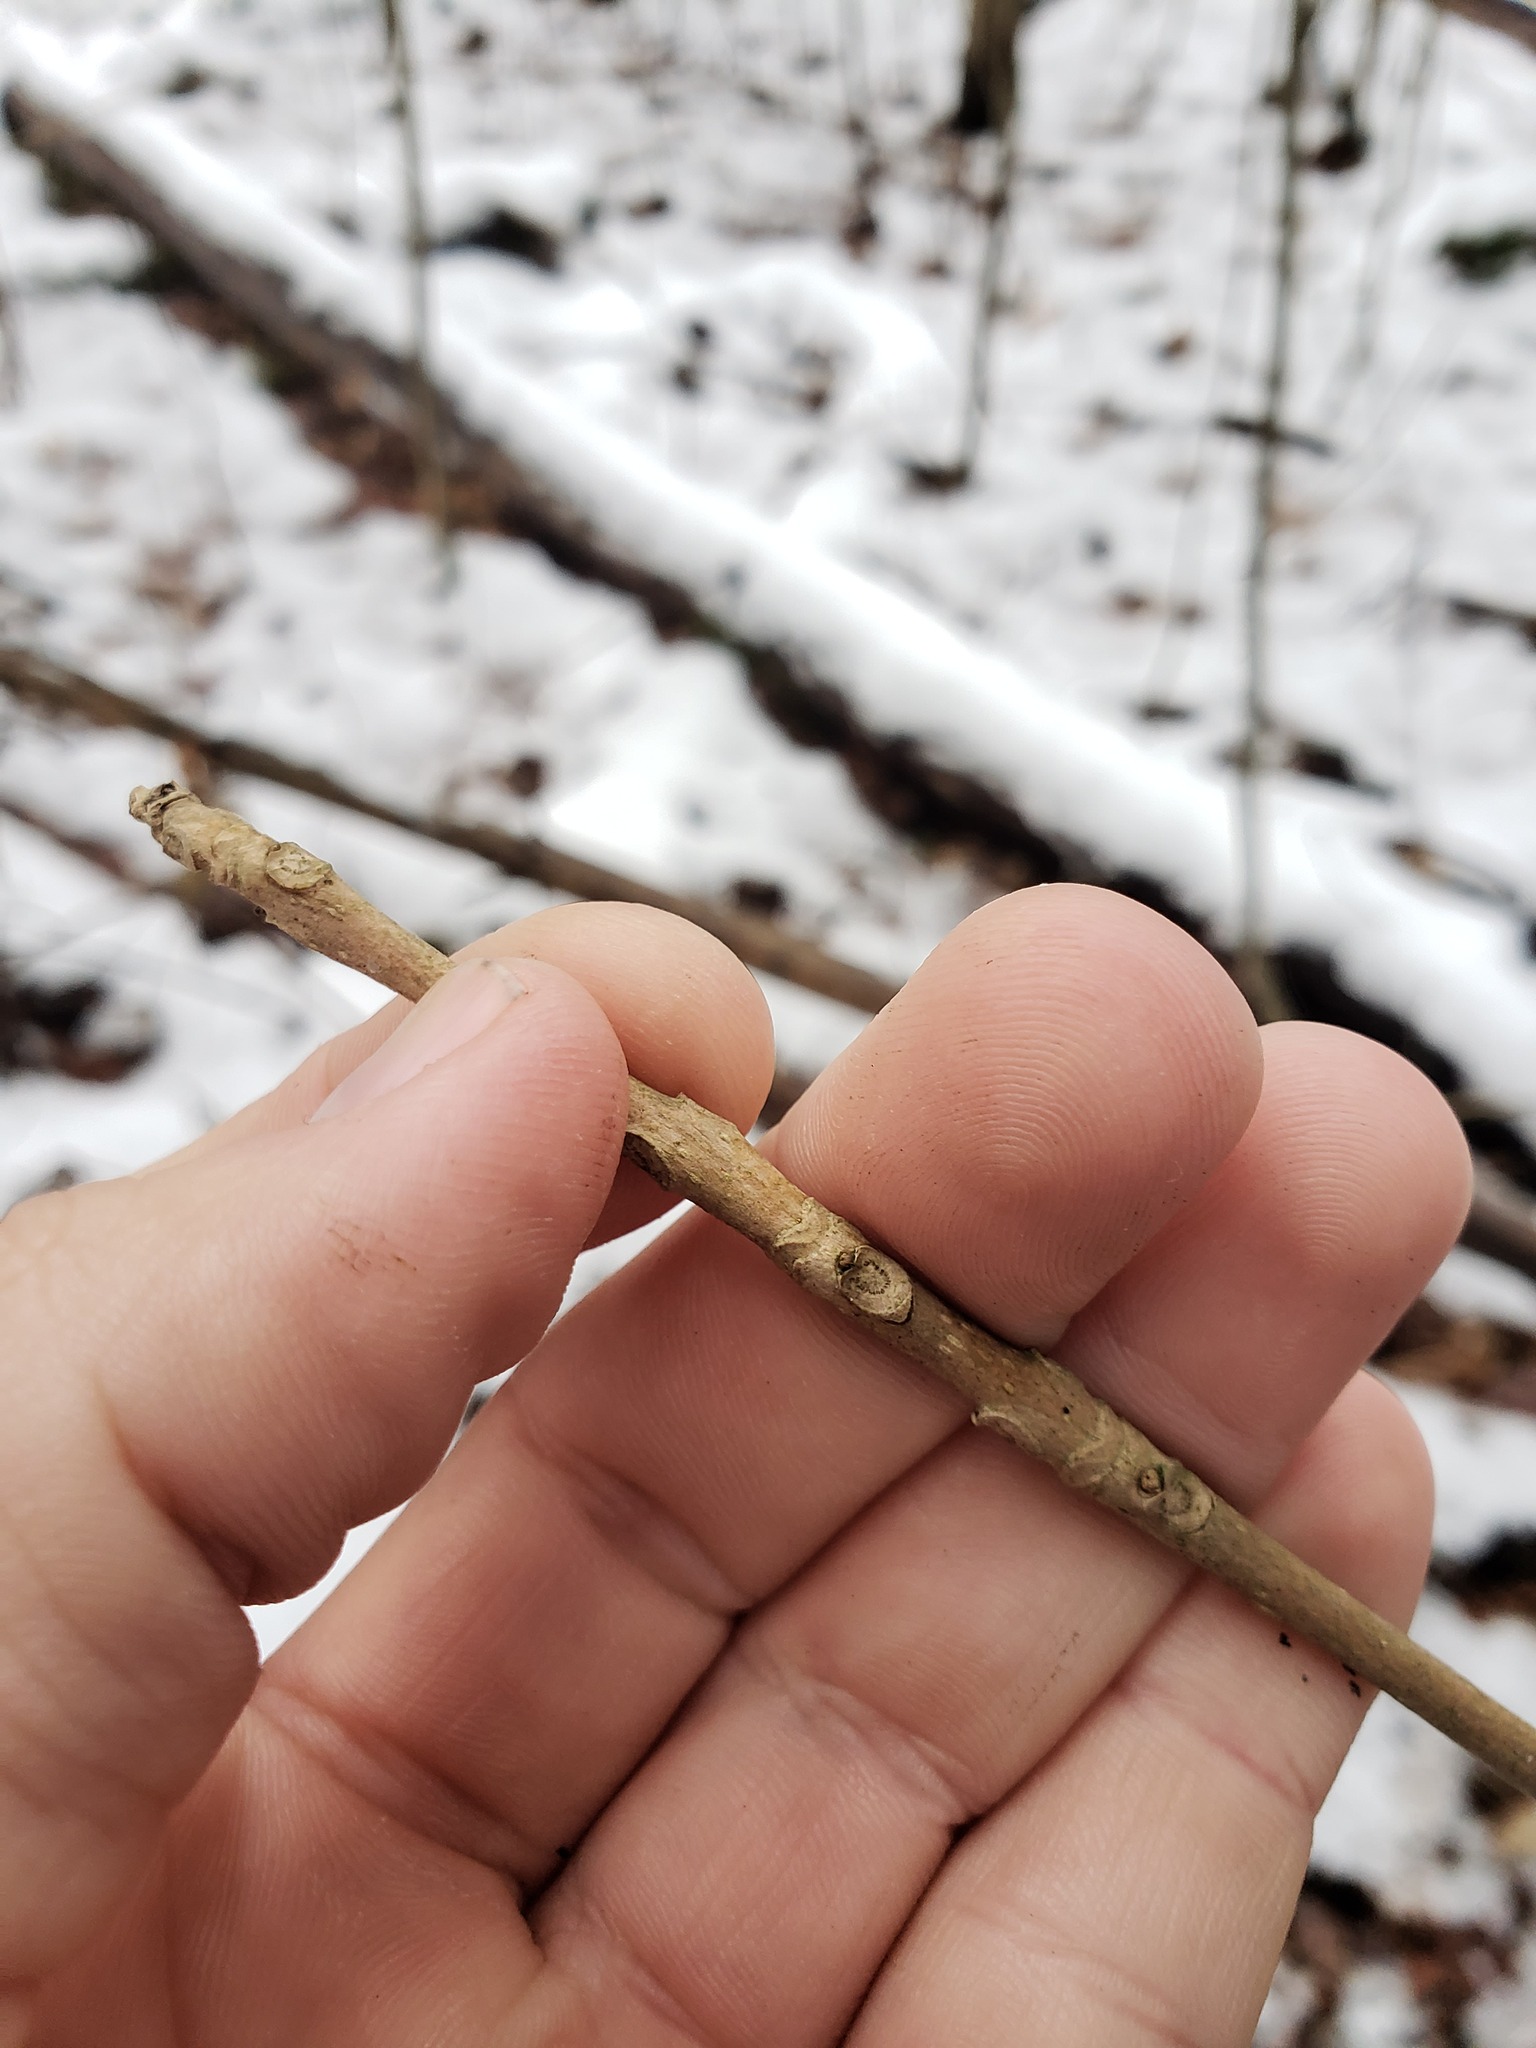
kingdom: Plantae
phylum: Tracheophyta
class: Magnoliopsida
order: Lamiales
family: Oleaceae
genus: Fraxinus
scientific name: Fraxinus nigra
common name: Black ash
